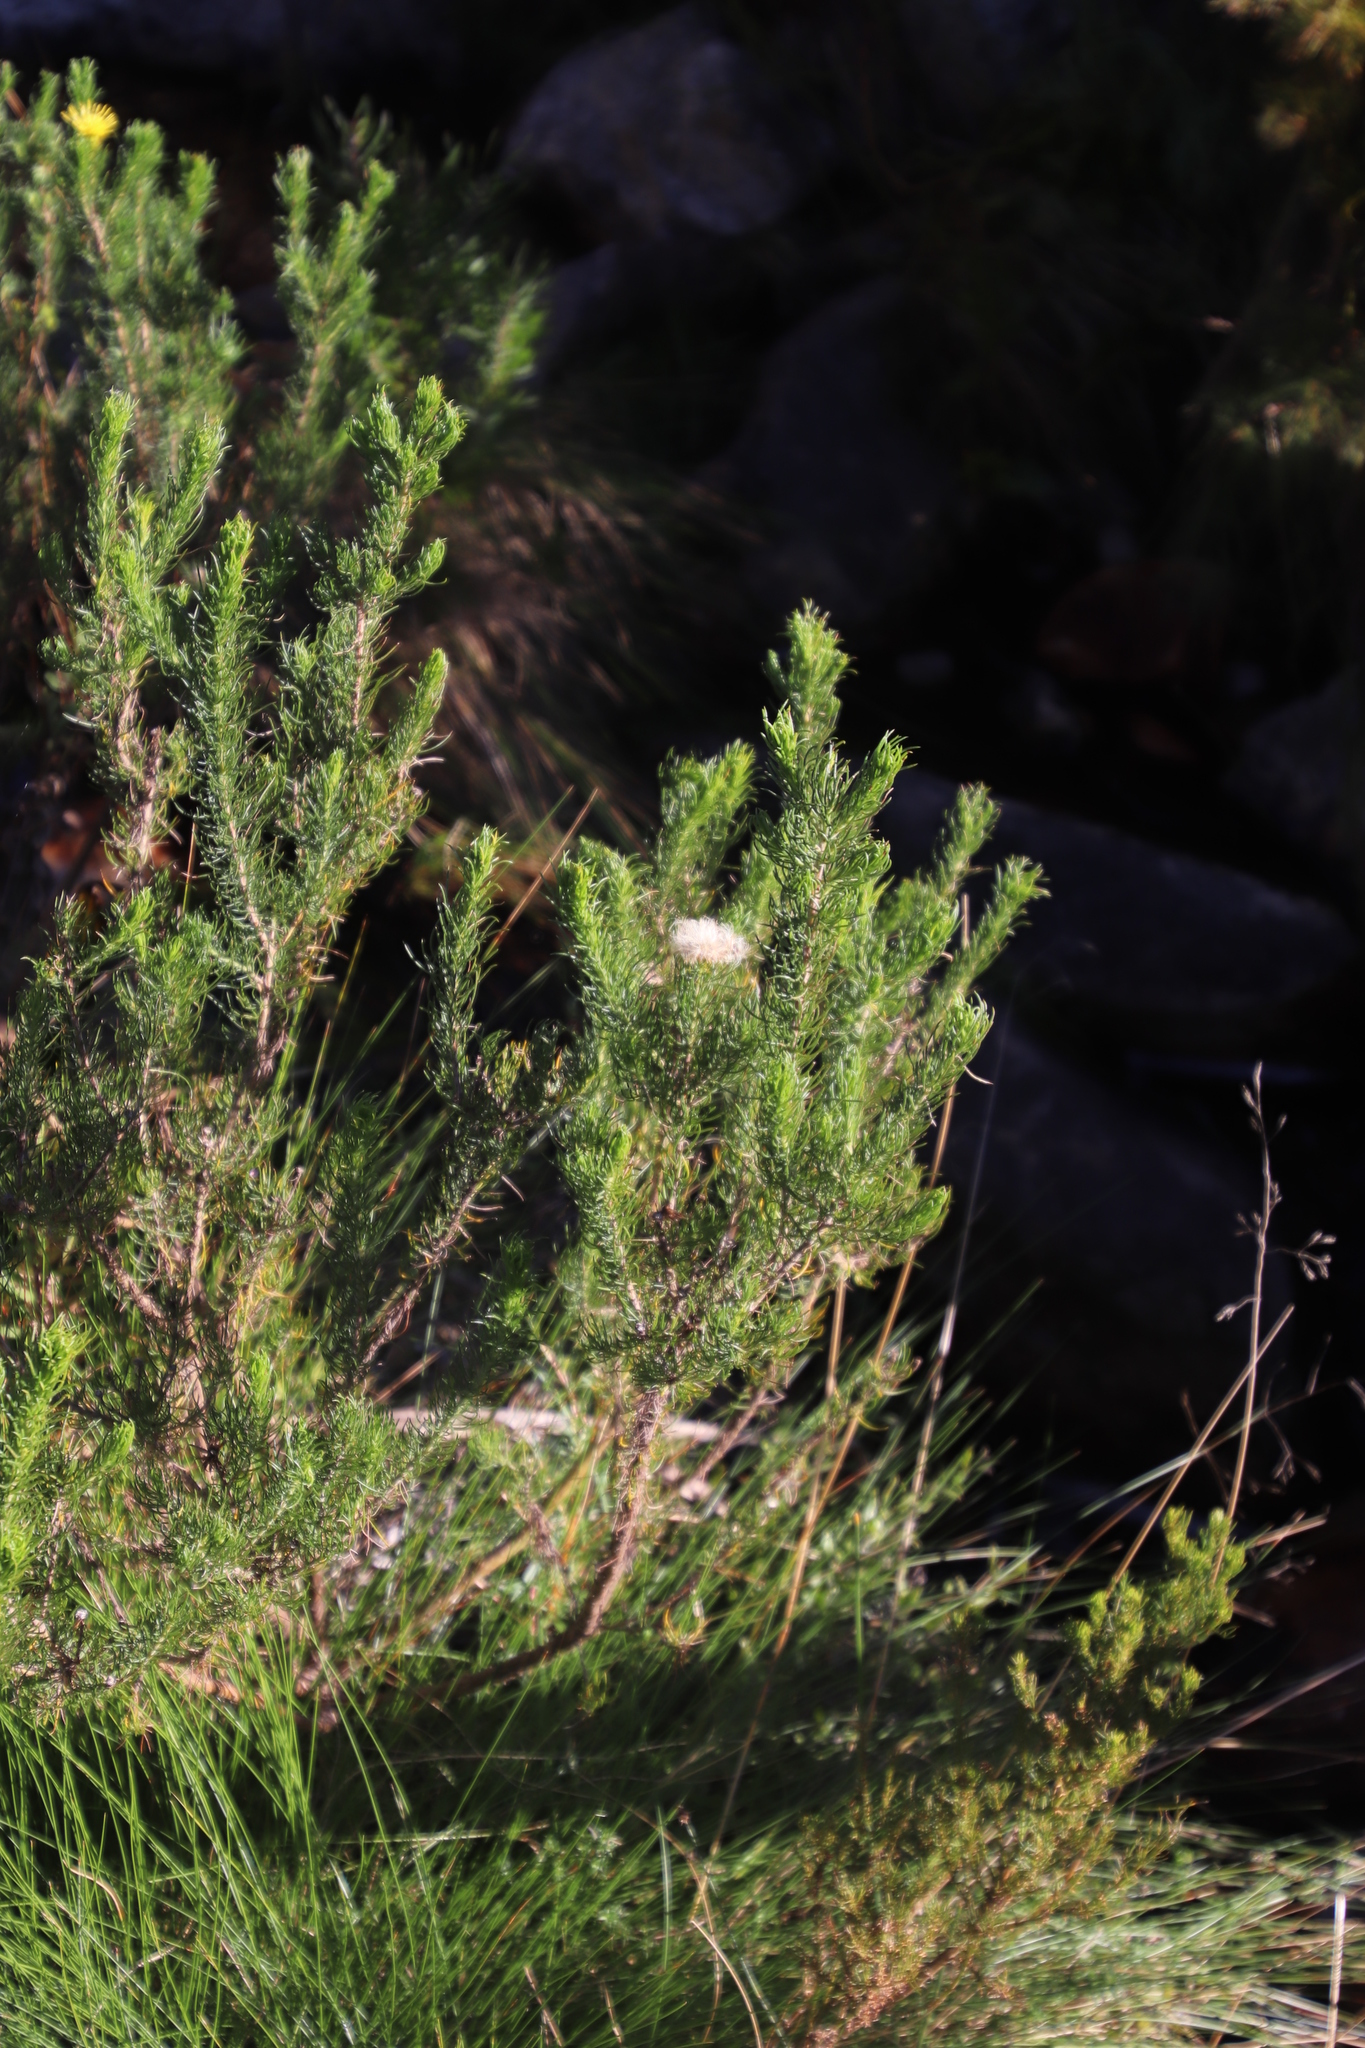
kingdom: Plantae
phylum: Tracheophyta
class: Magnoliopsida
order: Asterales
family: Asteraceae
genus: Pteronia
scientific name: Pteronia camphorata
